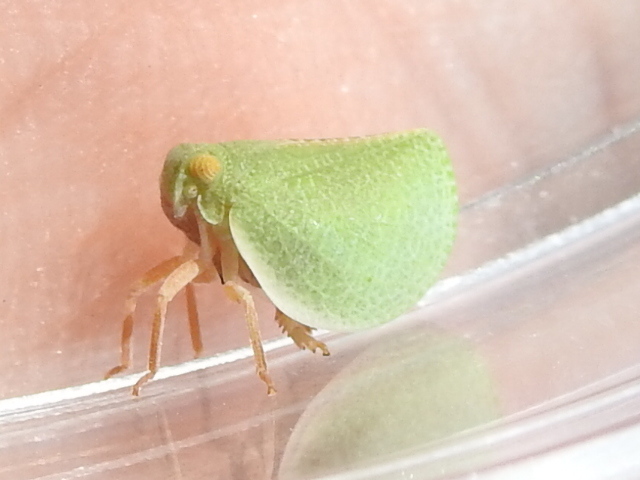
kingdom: Animalia
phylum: Arthropoda
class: Insecta
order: Hemiptera
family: Acanaloniidae
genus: Acanalonia
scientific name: Acanalonia invenusta
